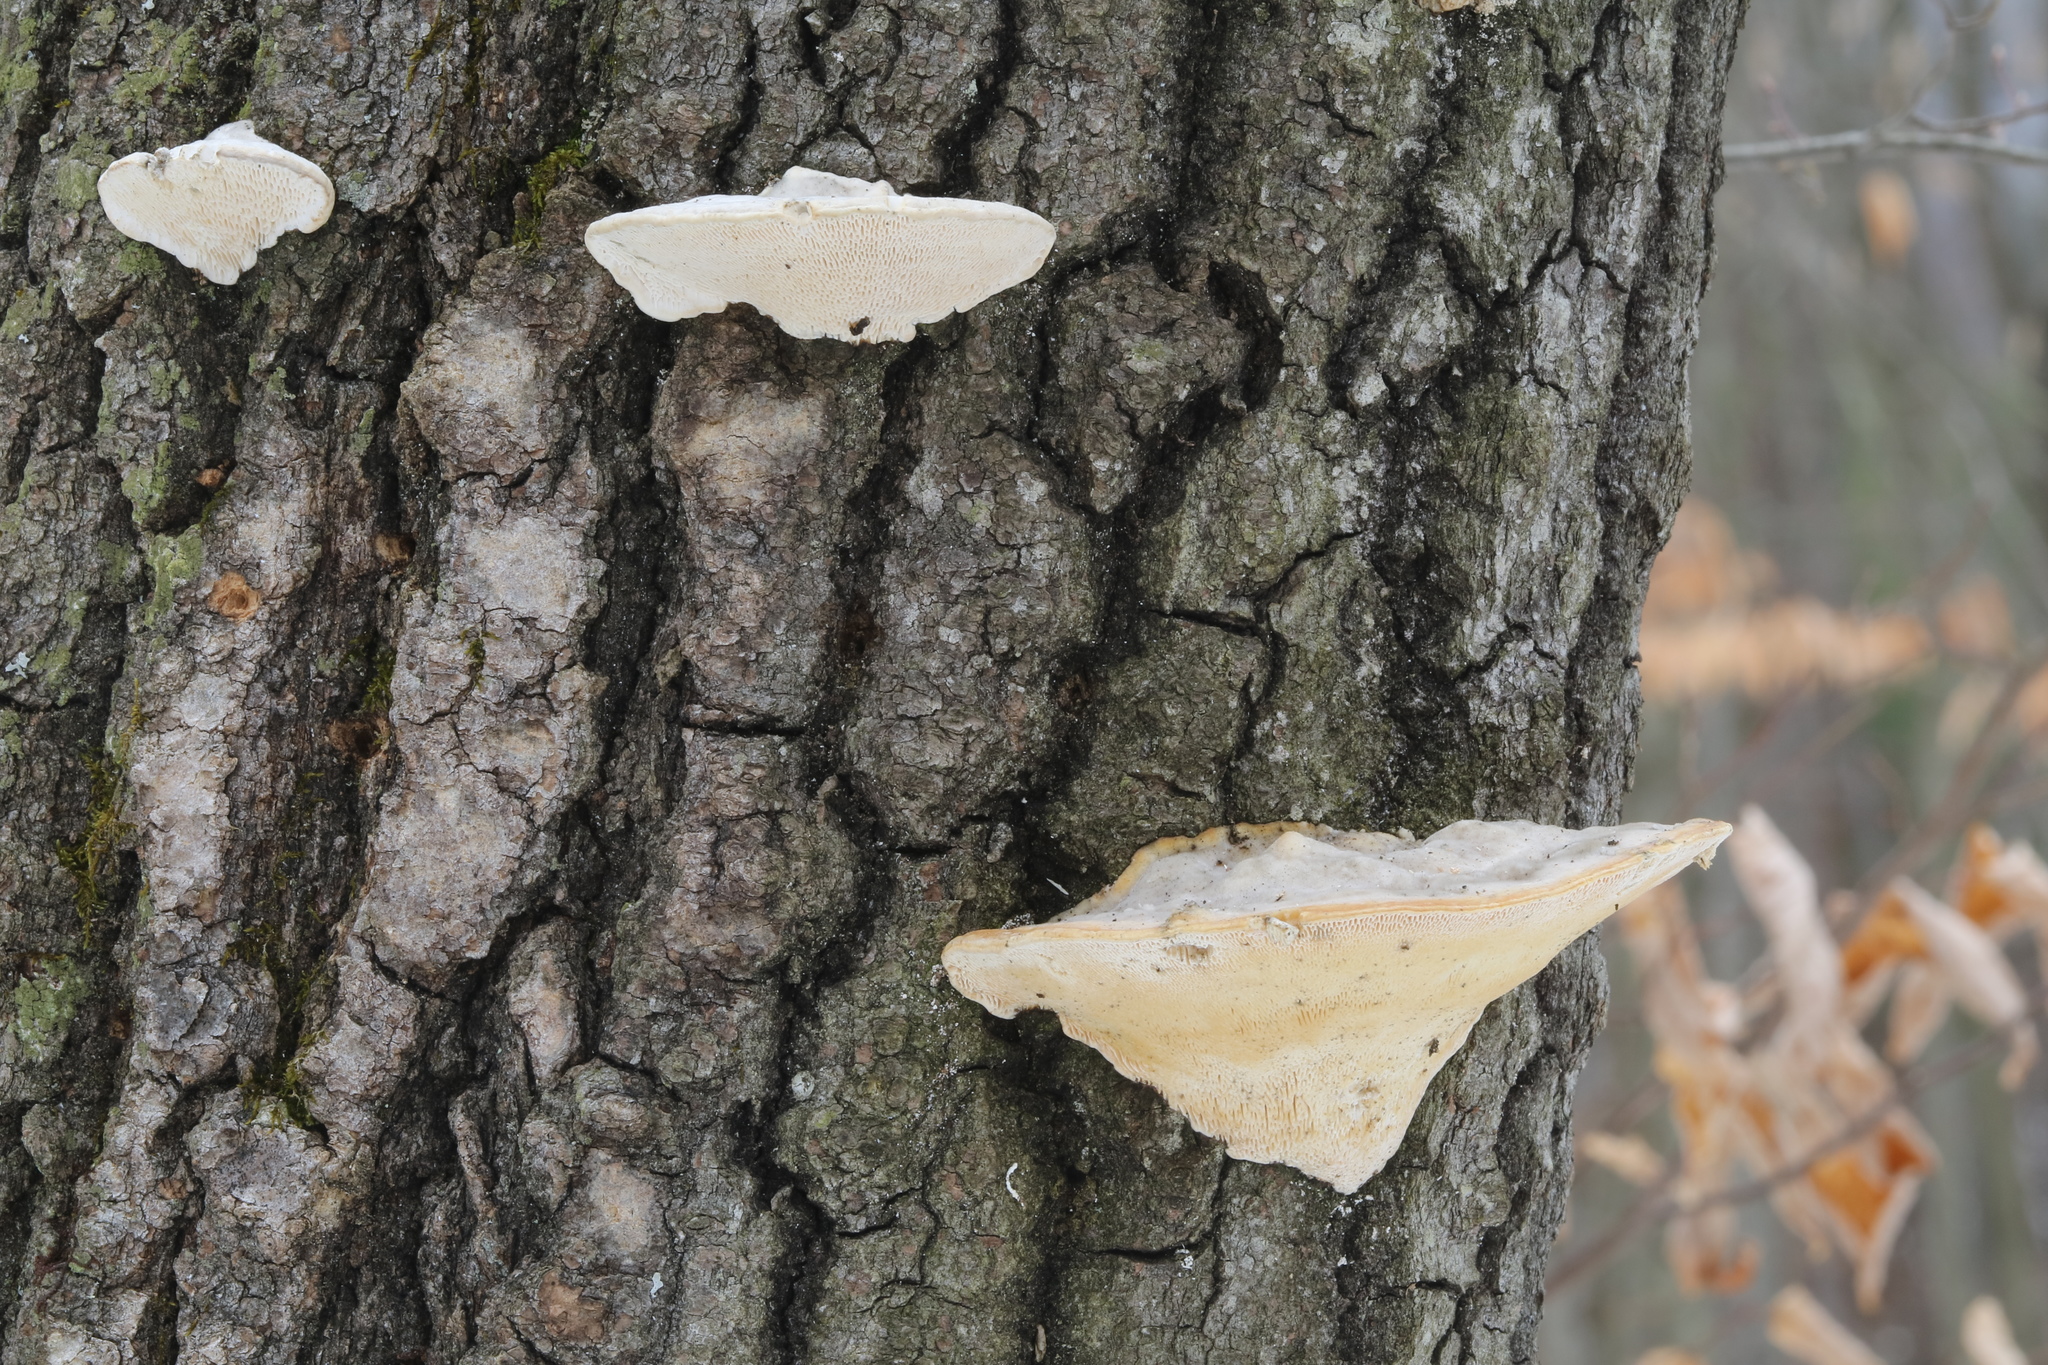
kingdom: Fungi
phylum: Basidiomycota
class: Agaricomycetes
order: Polyporales
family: Polyporaceae
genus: Trametes
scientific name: Trametes gibbosa
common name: Lumpy bracket
